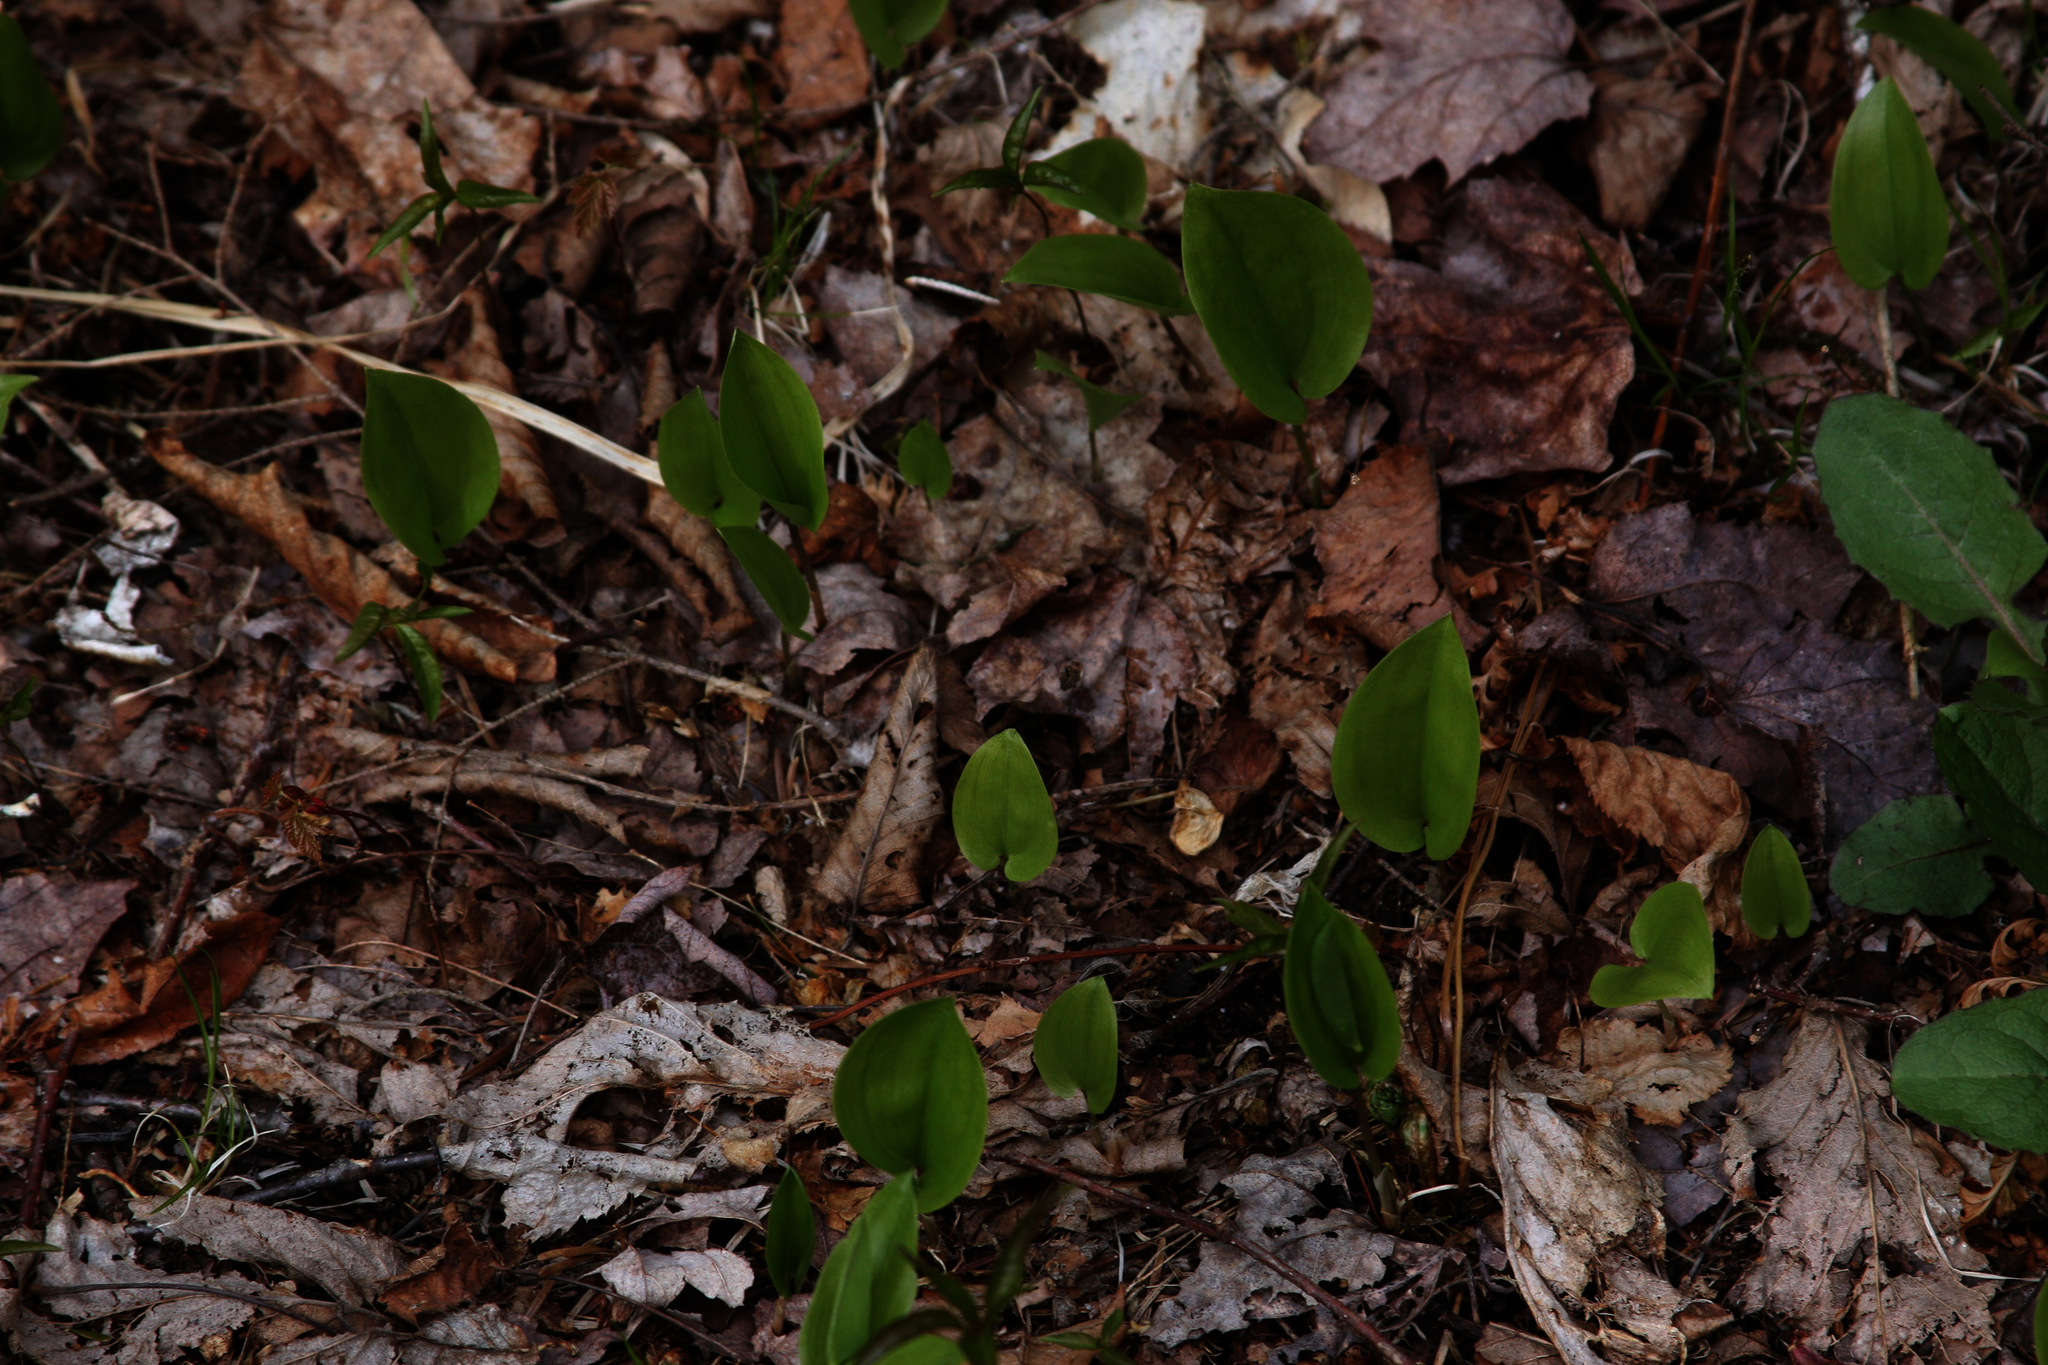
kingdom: Plantae
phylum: Tracheophyta
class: Liliopsida
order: Asparagales
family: Asparagaceae
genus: Maianthemum
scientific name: Maianthemum canadense
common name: False lily-of-the-valley
